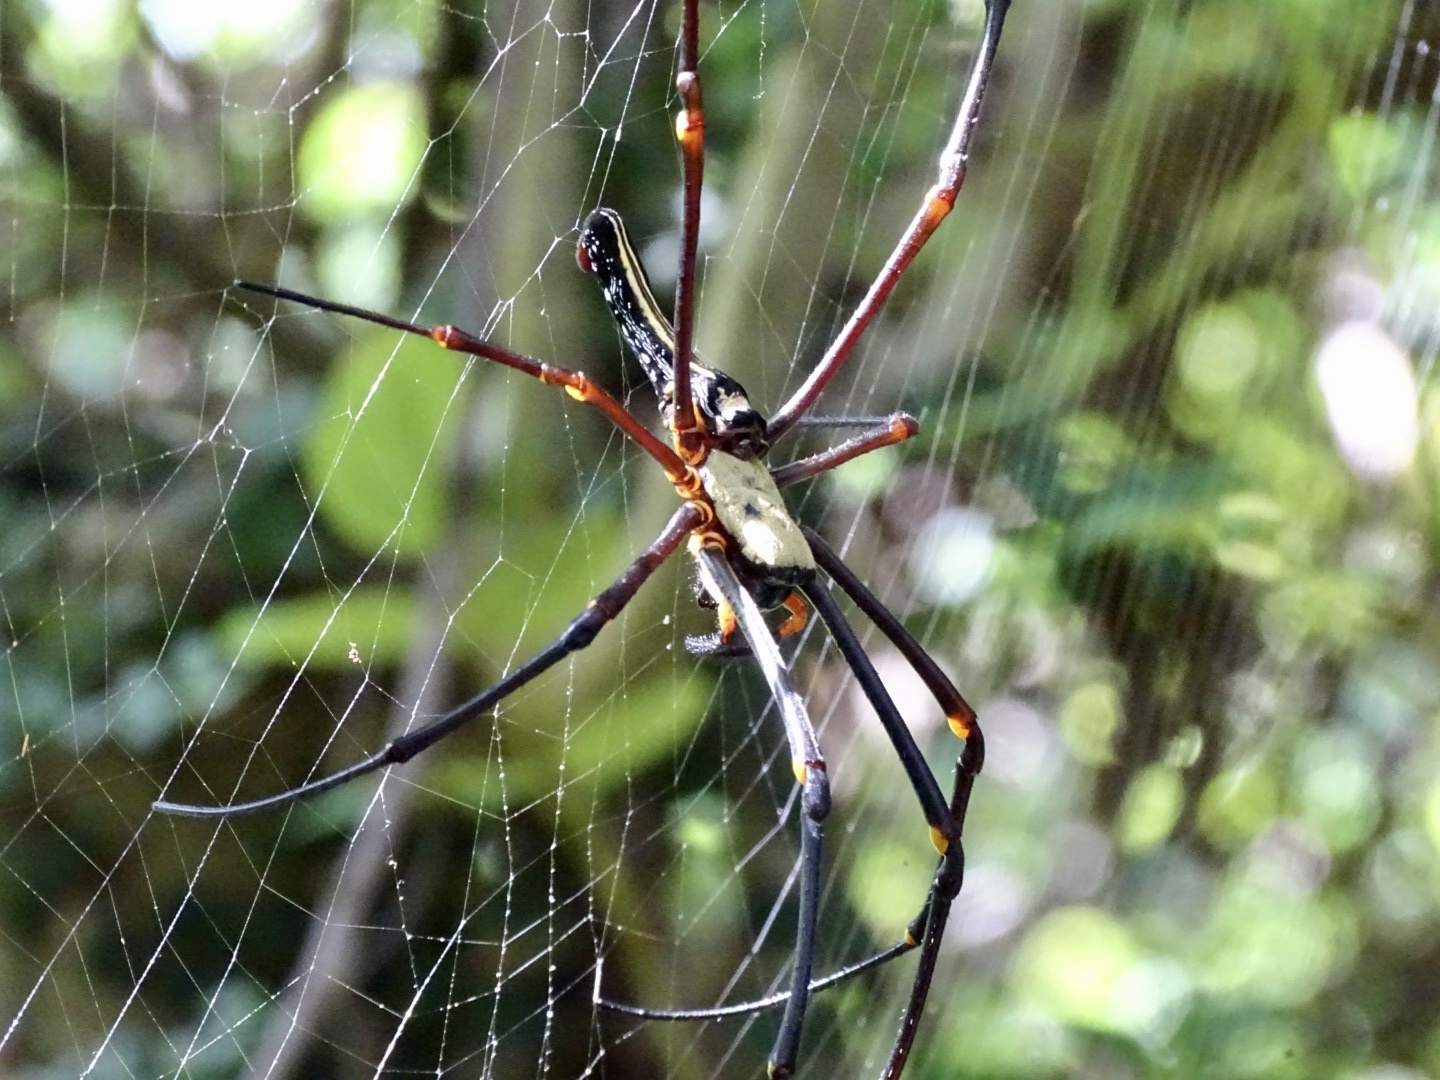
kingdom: Animalia
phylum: Arthropoda
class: Arachnida
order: Araneae
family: Araneidae
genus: Nephila
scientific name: Nephila pilipes
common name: Giant golden orb weaver
